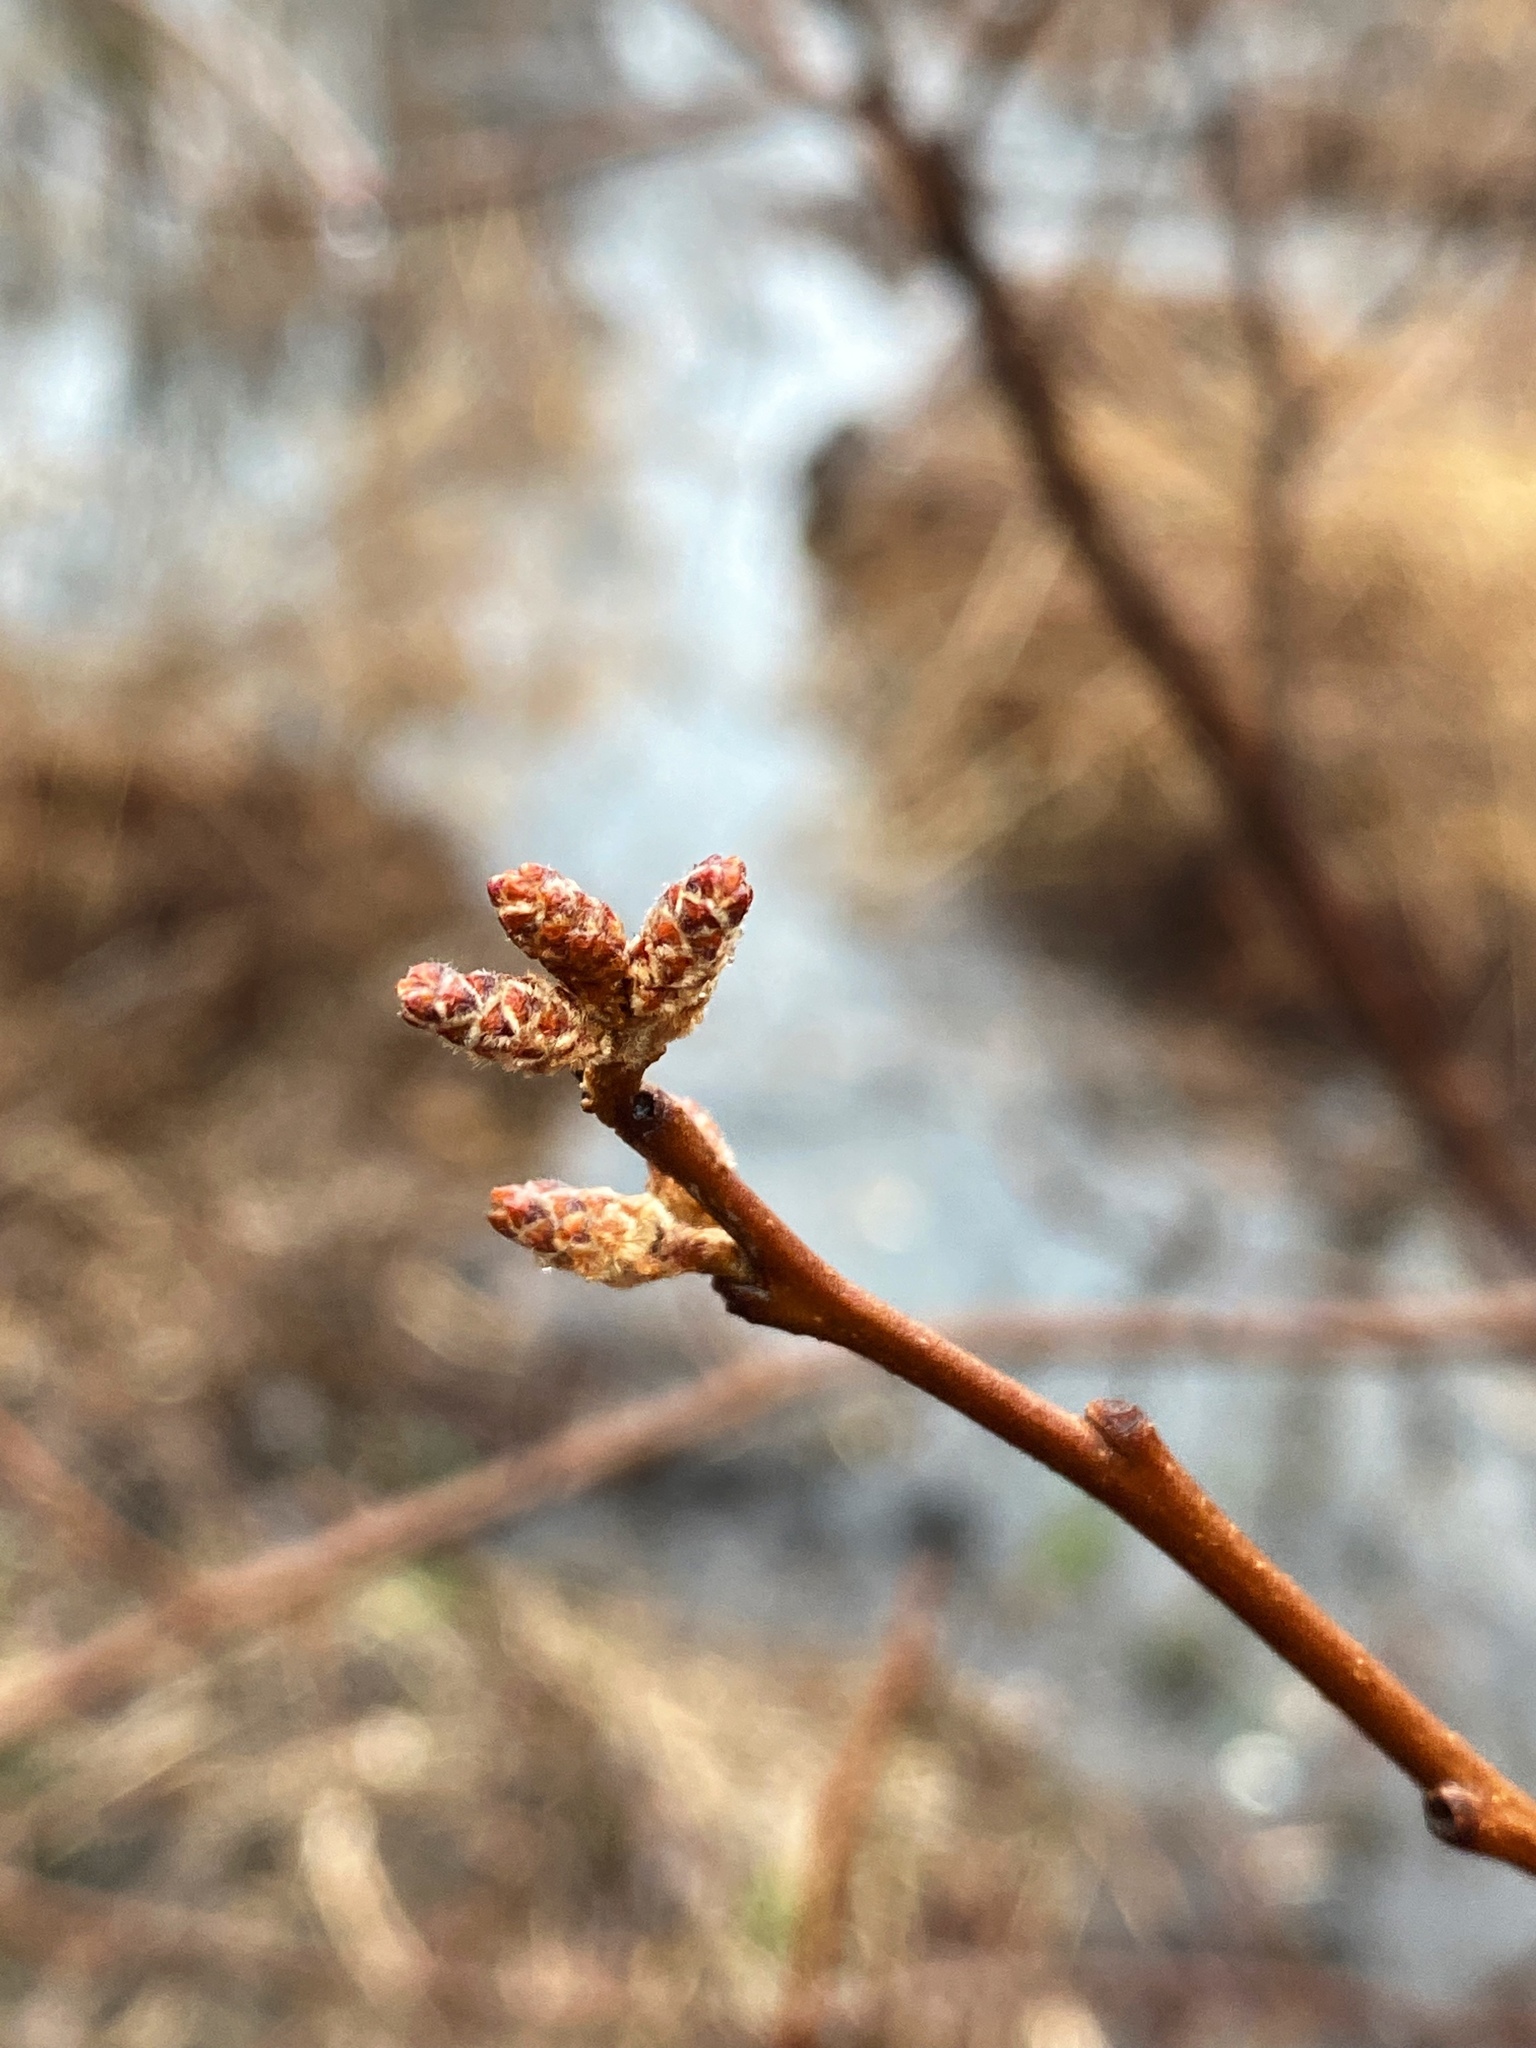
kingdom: Plantae
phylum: Tracheophyta
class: Magnoliopsida
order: Sapindales
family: Anacardiaceae
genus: Rhus
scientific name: Rhus aromatica
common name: Aromatic sumac
